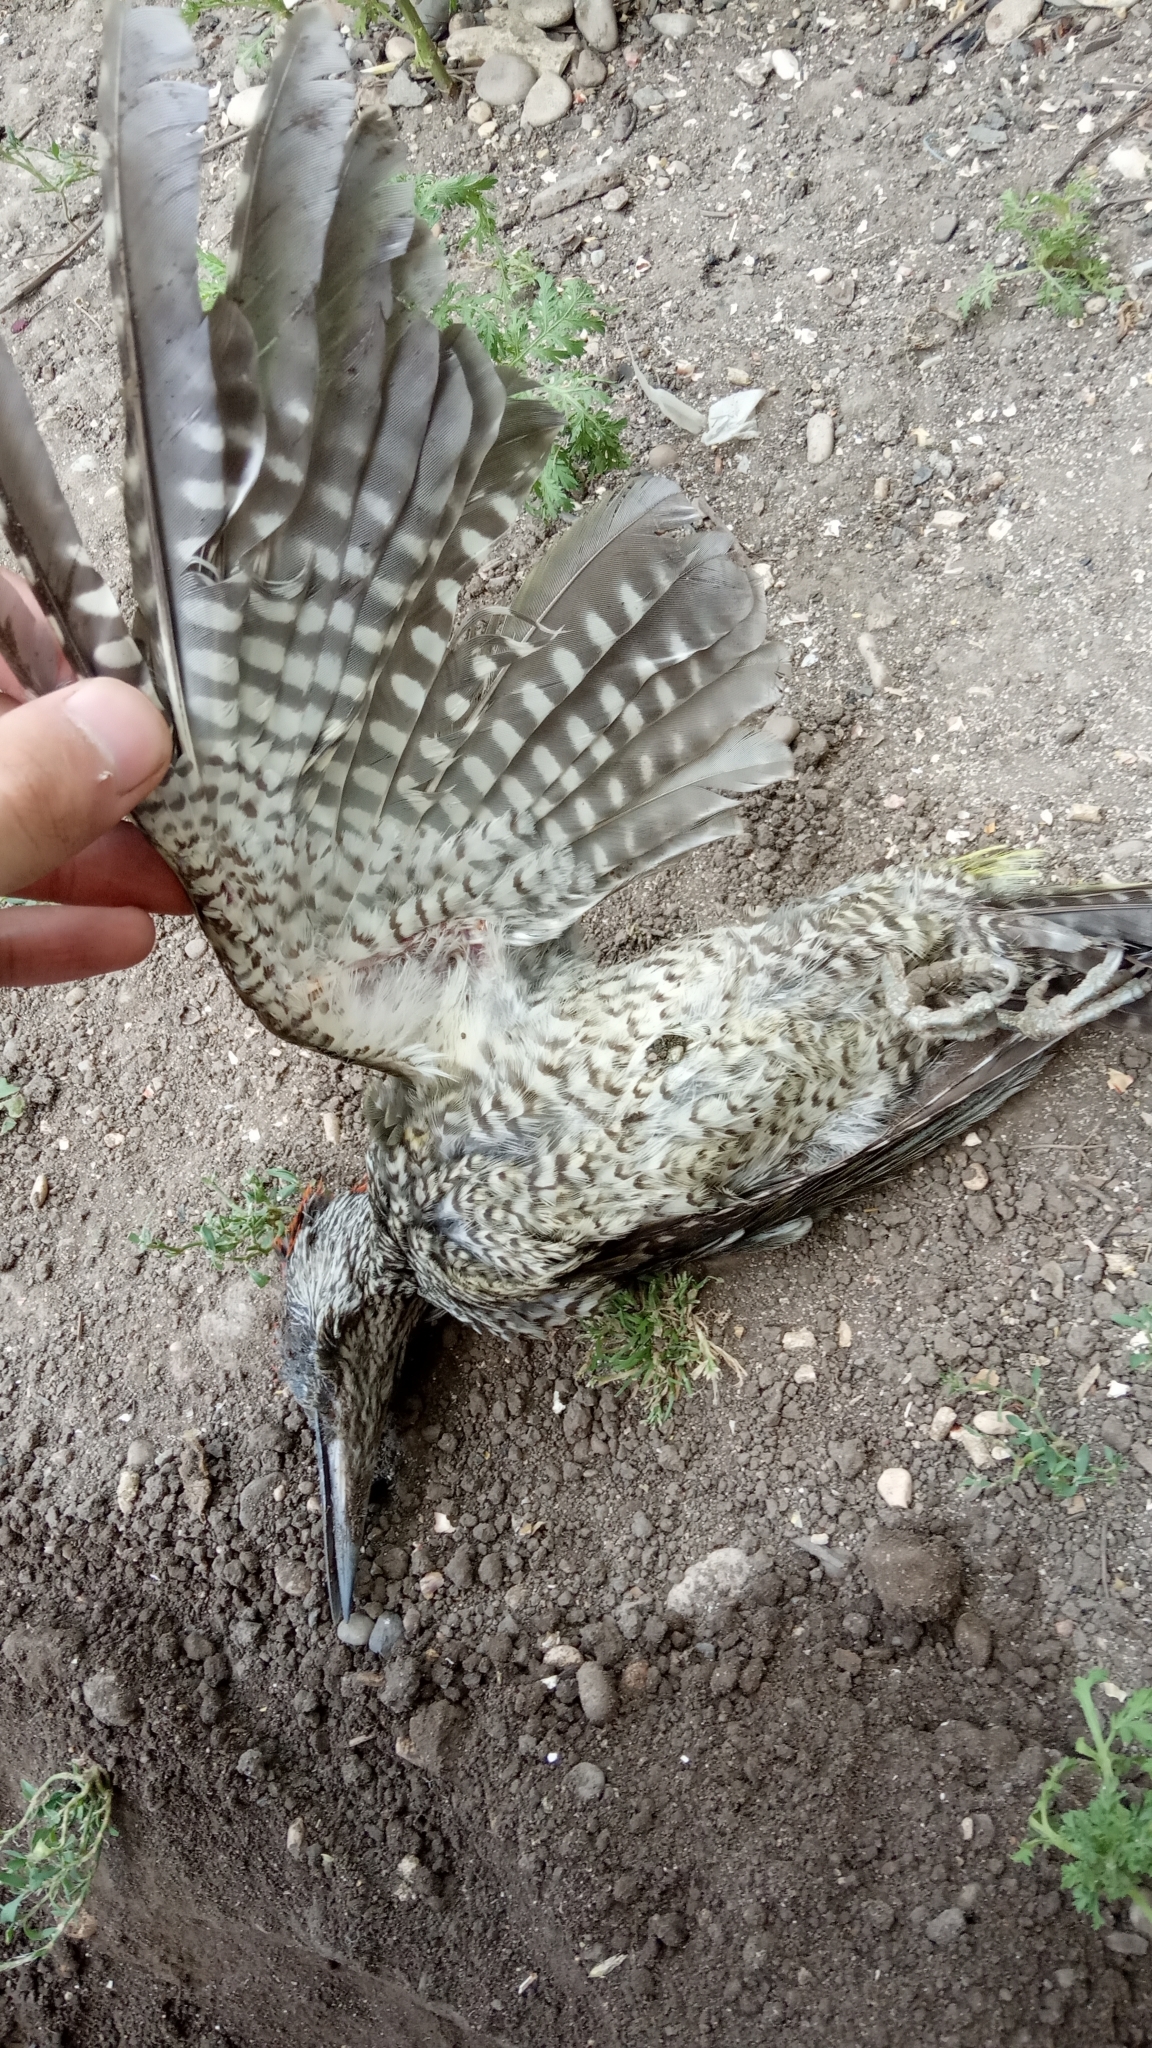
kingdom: Animalia
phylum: Chordata
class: Aves
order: Piciformes
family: Picidae
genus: Picus
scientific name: Picus viridis
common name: European green woodpecker
